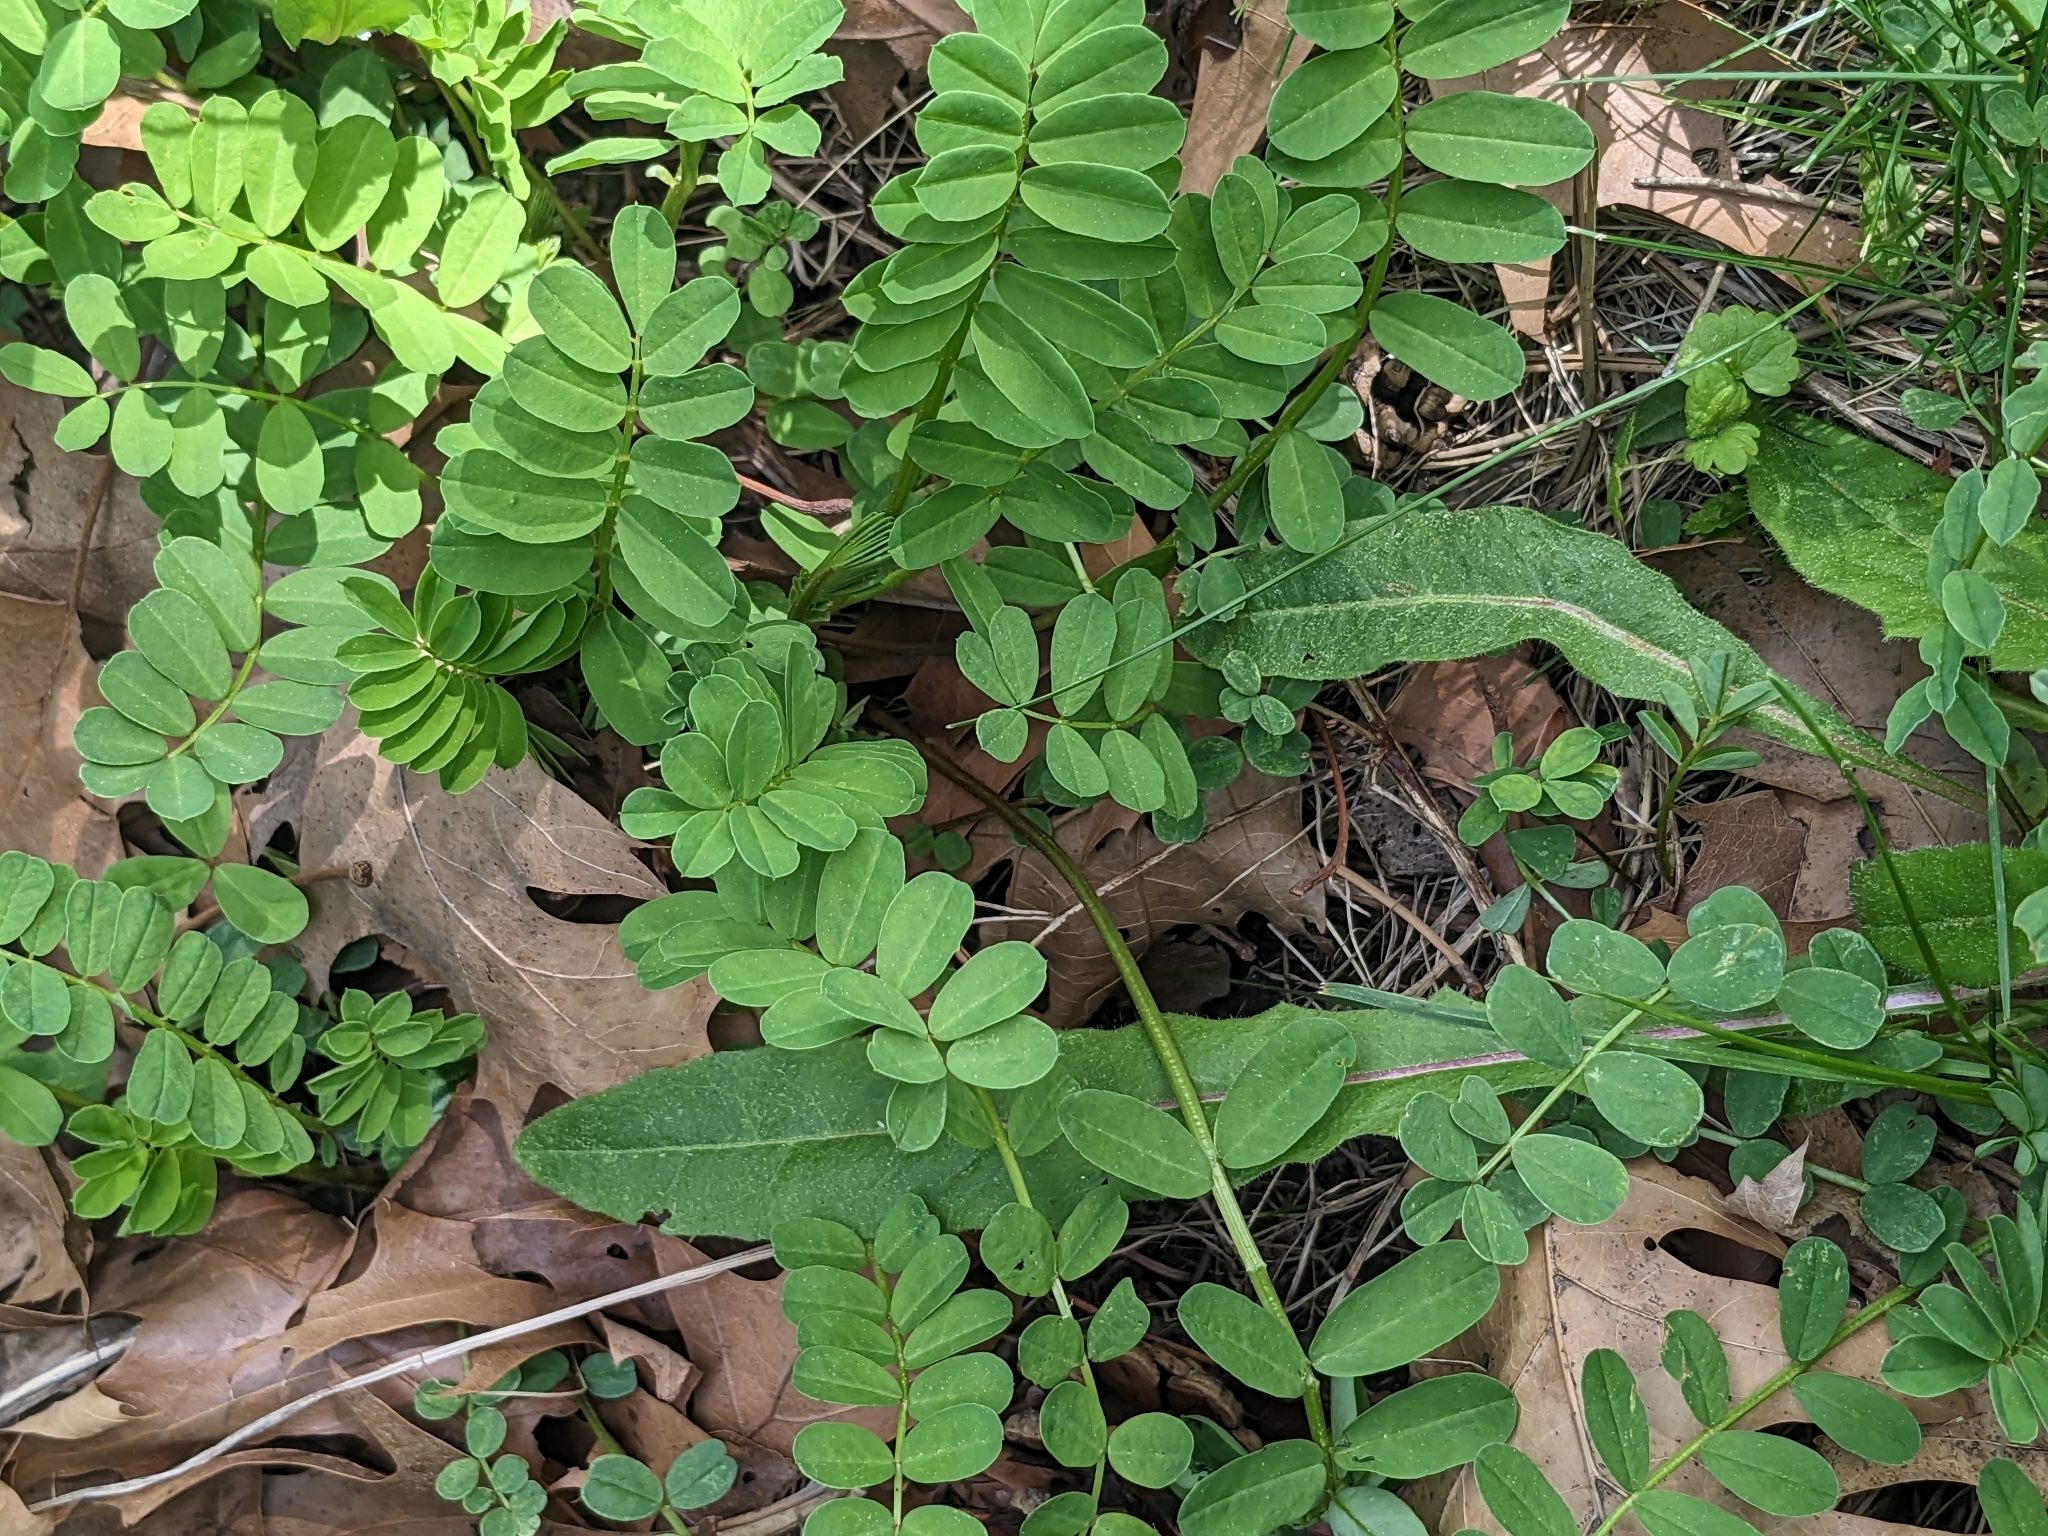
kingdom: Plantae
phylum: Tracheophyta
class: Magnoliopsida
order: Fabales
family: Fabaceae
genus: Coronilla
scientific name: Coronilla varia
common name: Crownvetch
